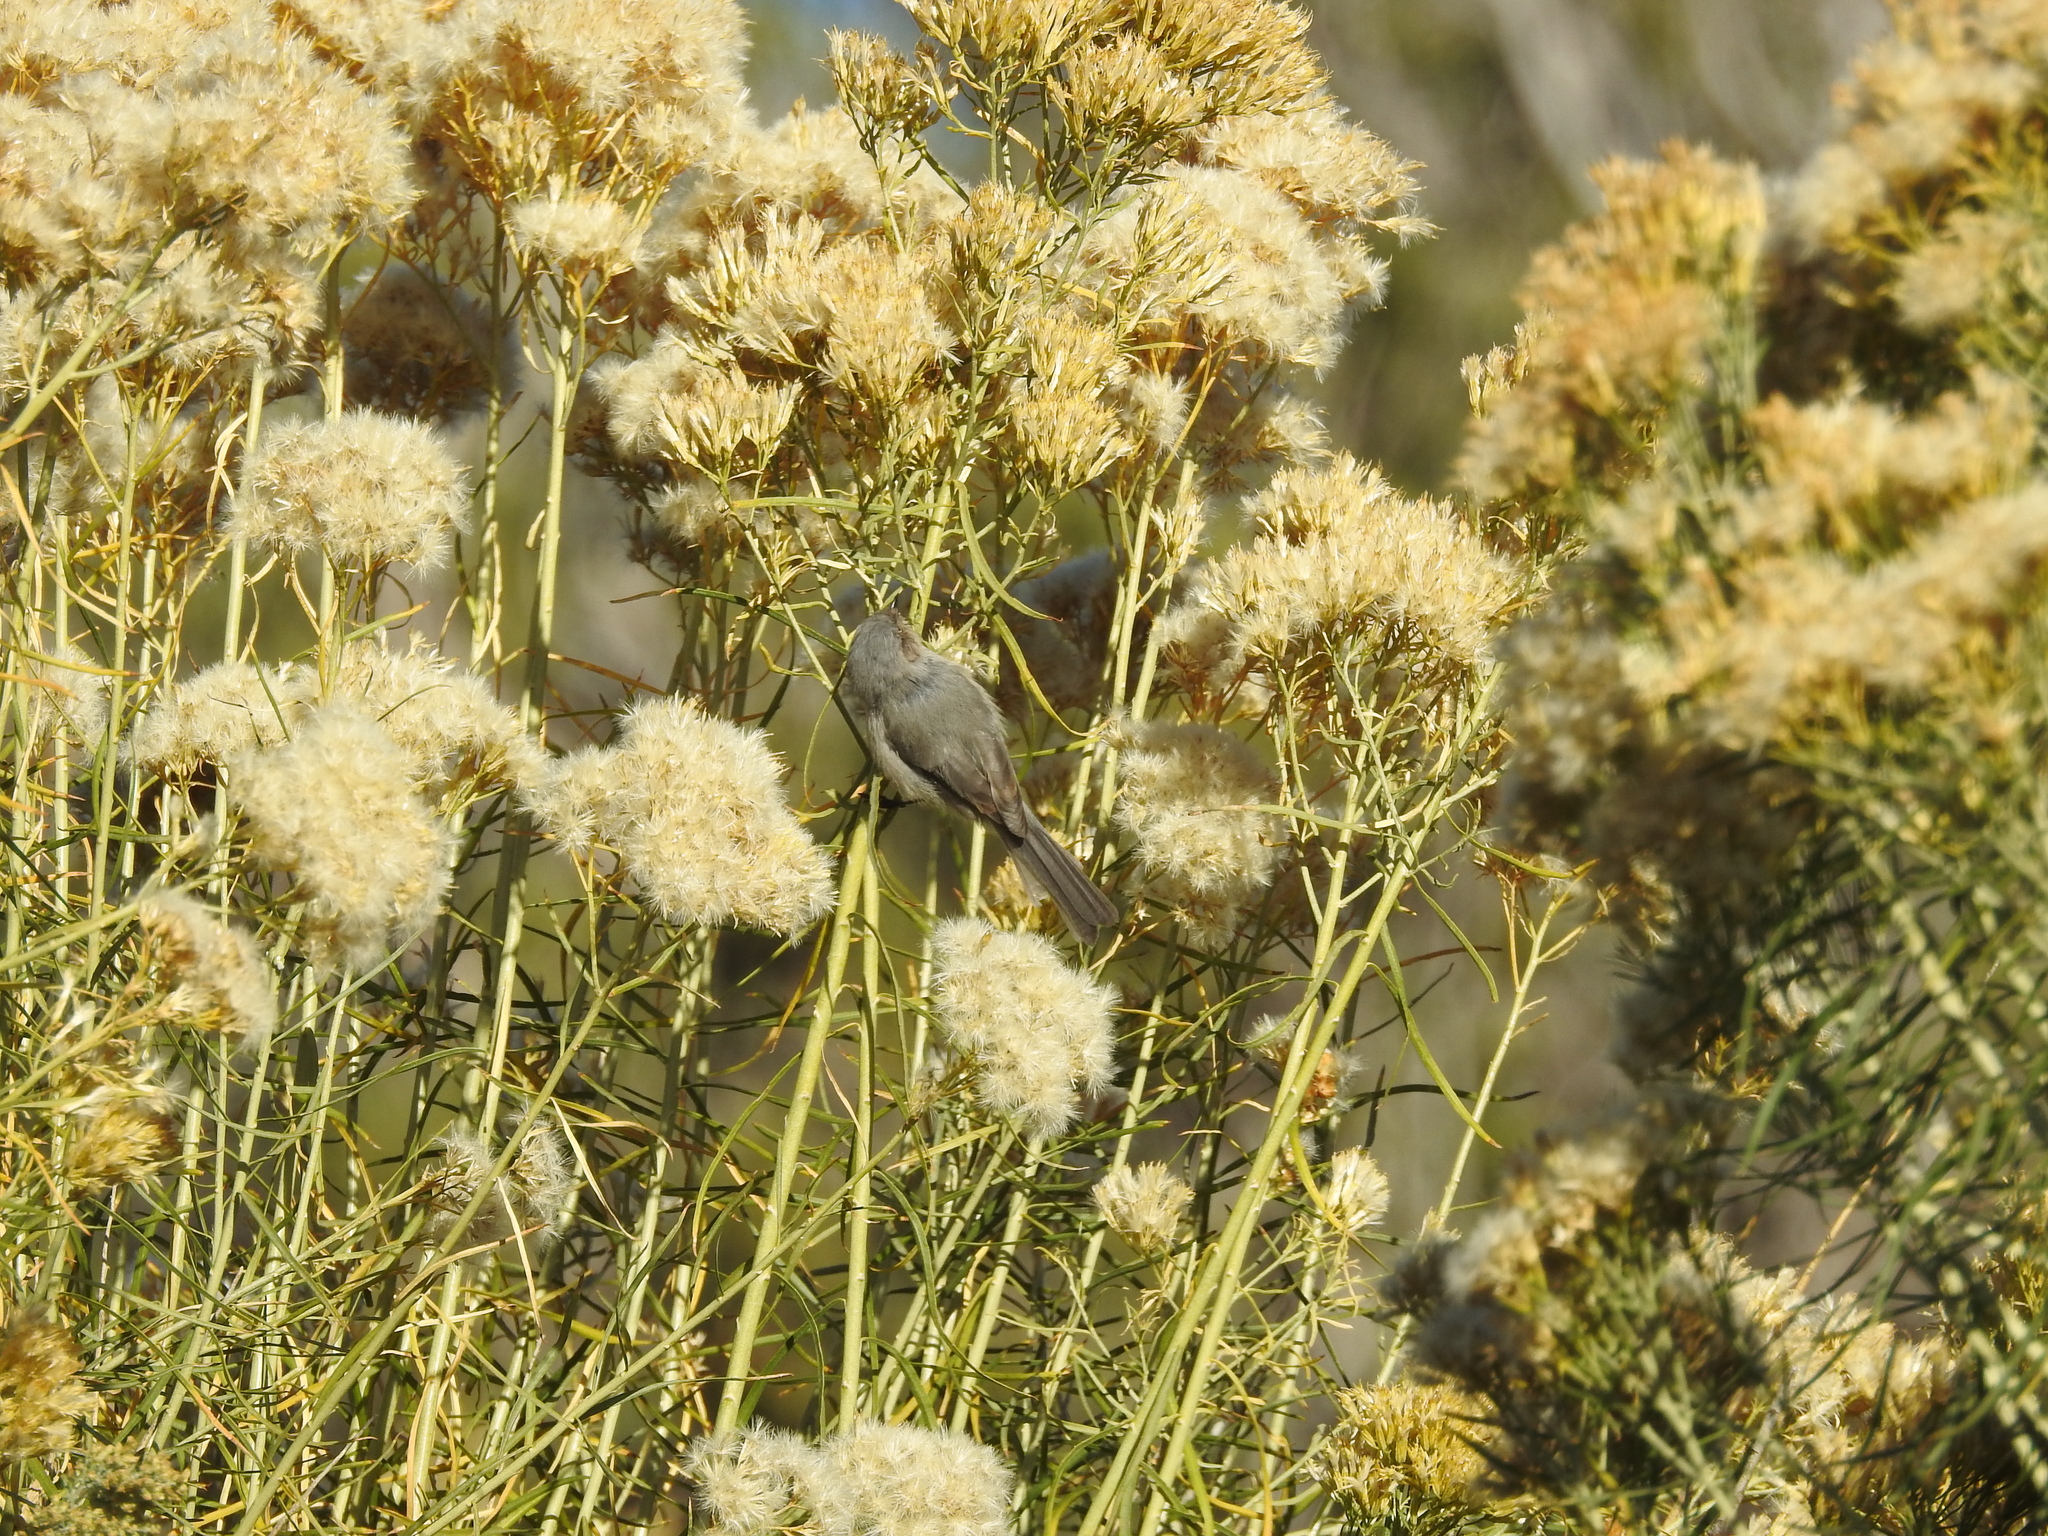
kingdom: Animalia
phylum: Chordata
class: Aves
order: Passeriformes
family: Aegithalidae
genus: Psaltriparus
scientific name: Psaltriparus minimus
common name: American bushtit
